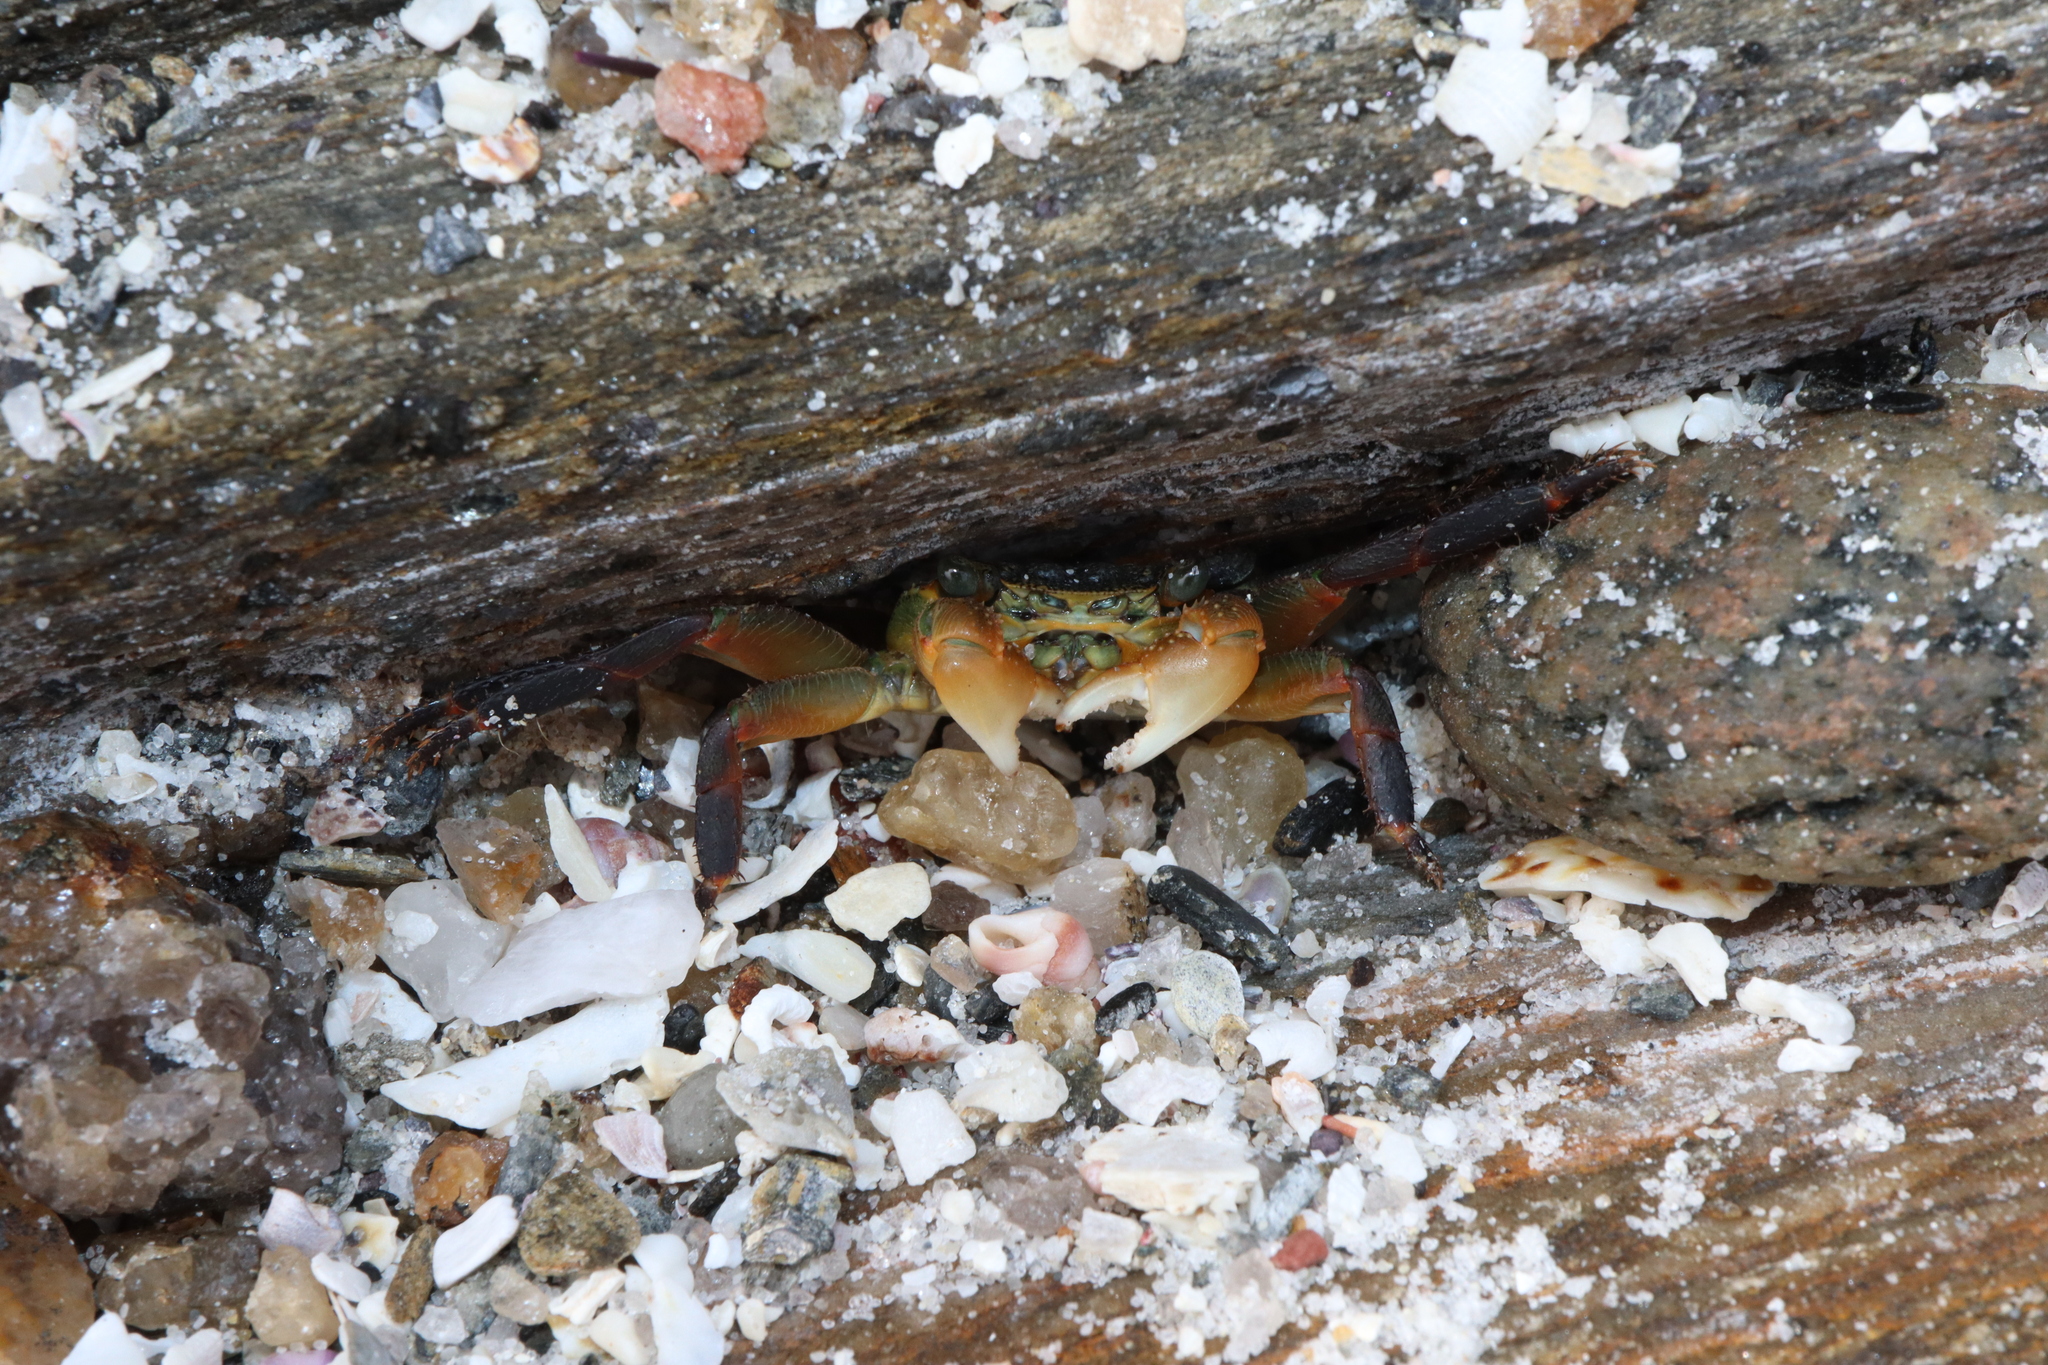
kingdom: Animalia
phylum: Arthropoda
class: Malacostraca
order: Decapoda
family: Grapsidae
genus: Leptograpsus
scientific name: Leptograpsus variegatus
